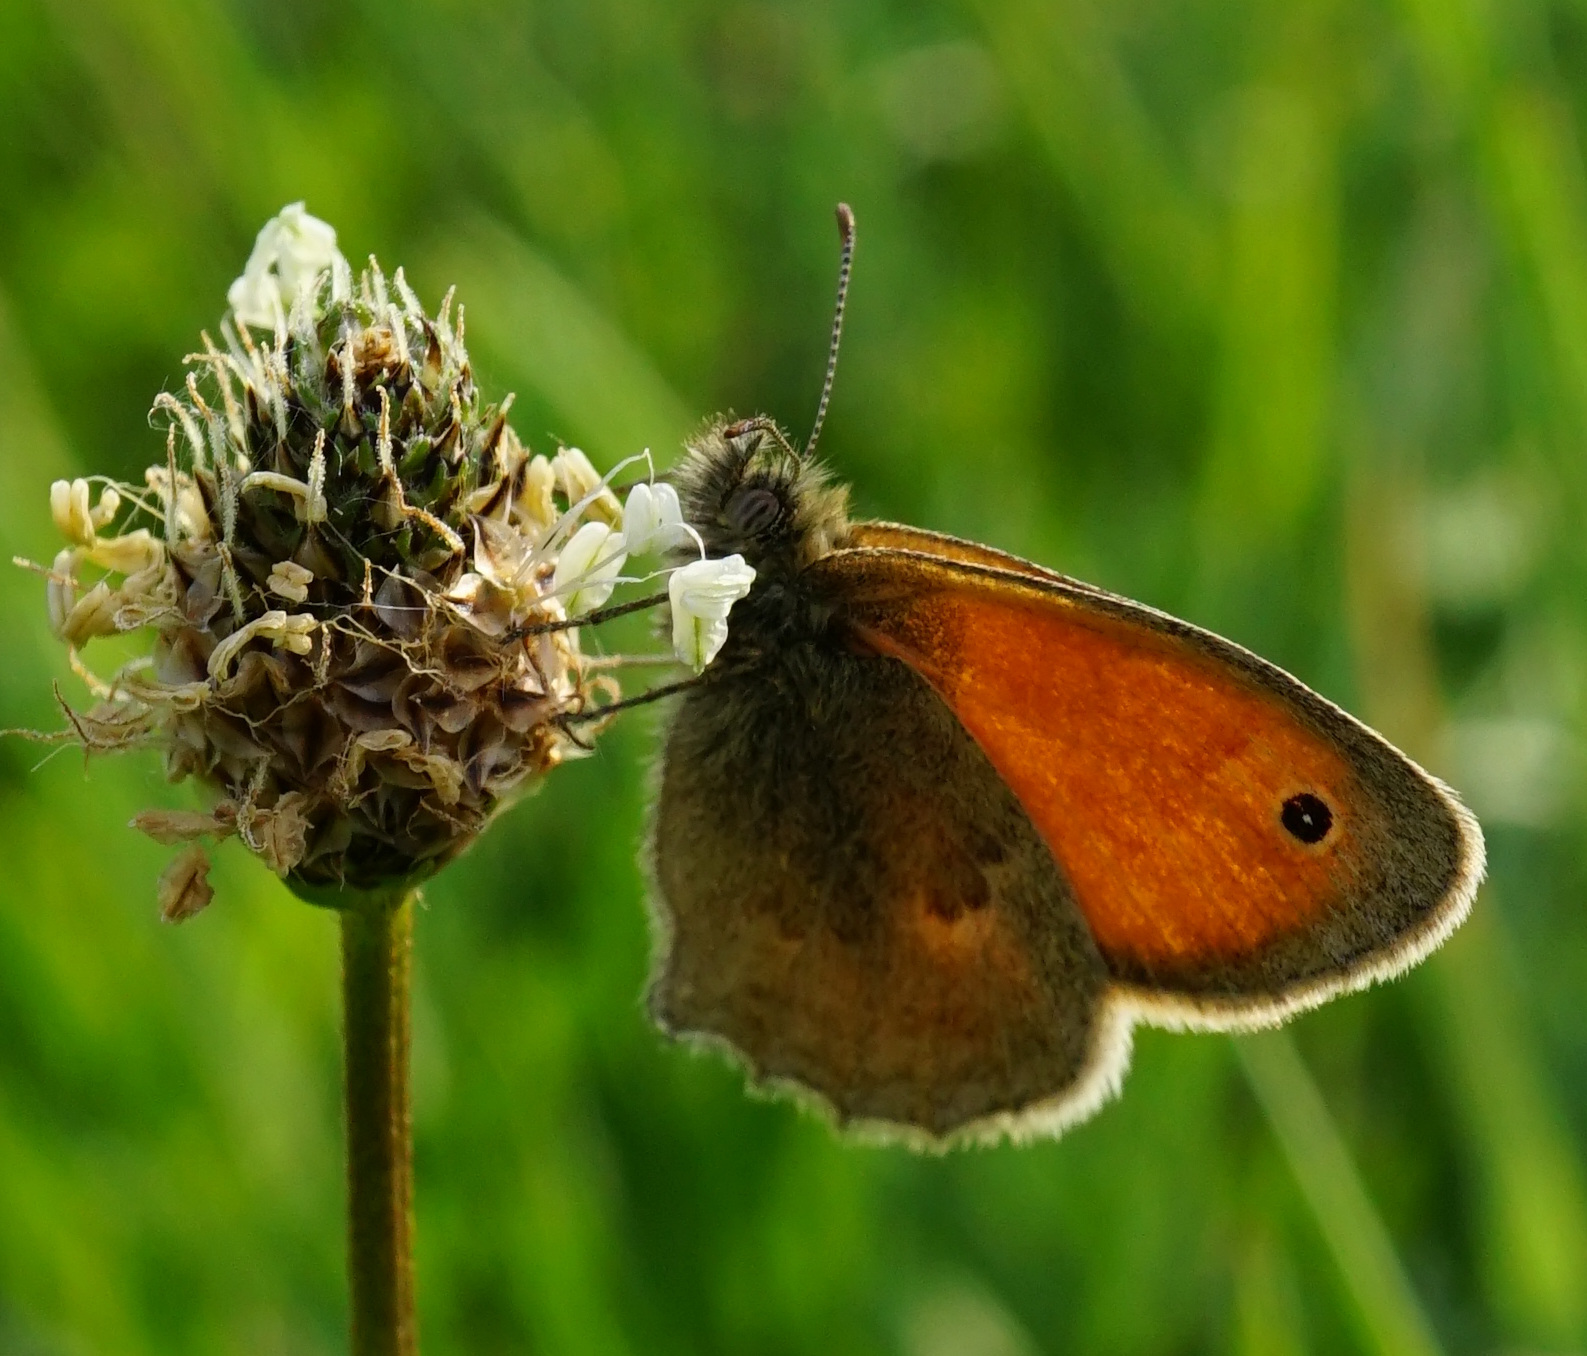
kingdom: Animalia
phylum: Arthropoda
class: Insecta
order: Lepidoptera
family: Nymphalidae
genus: Coenonympha
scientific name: Coenonympha pamphilus
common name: Small heath
